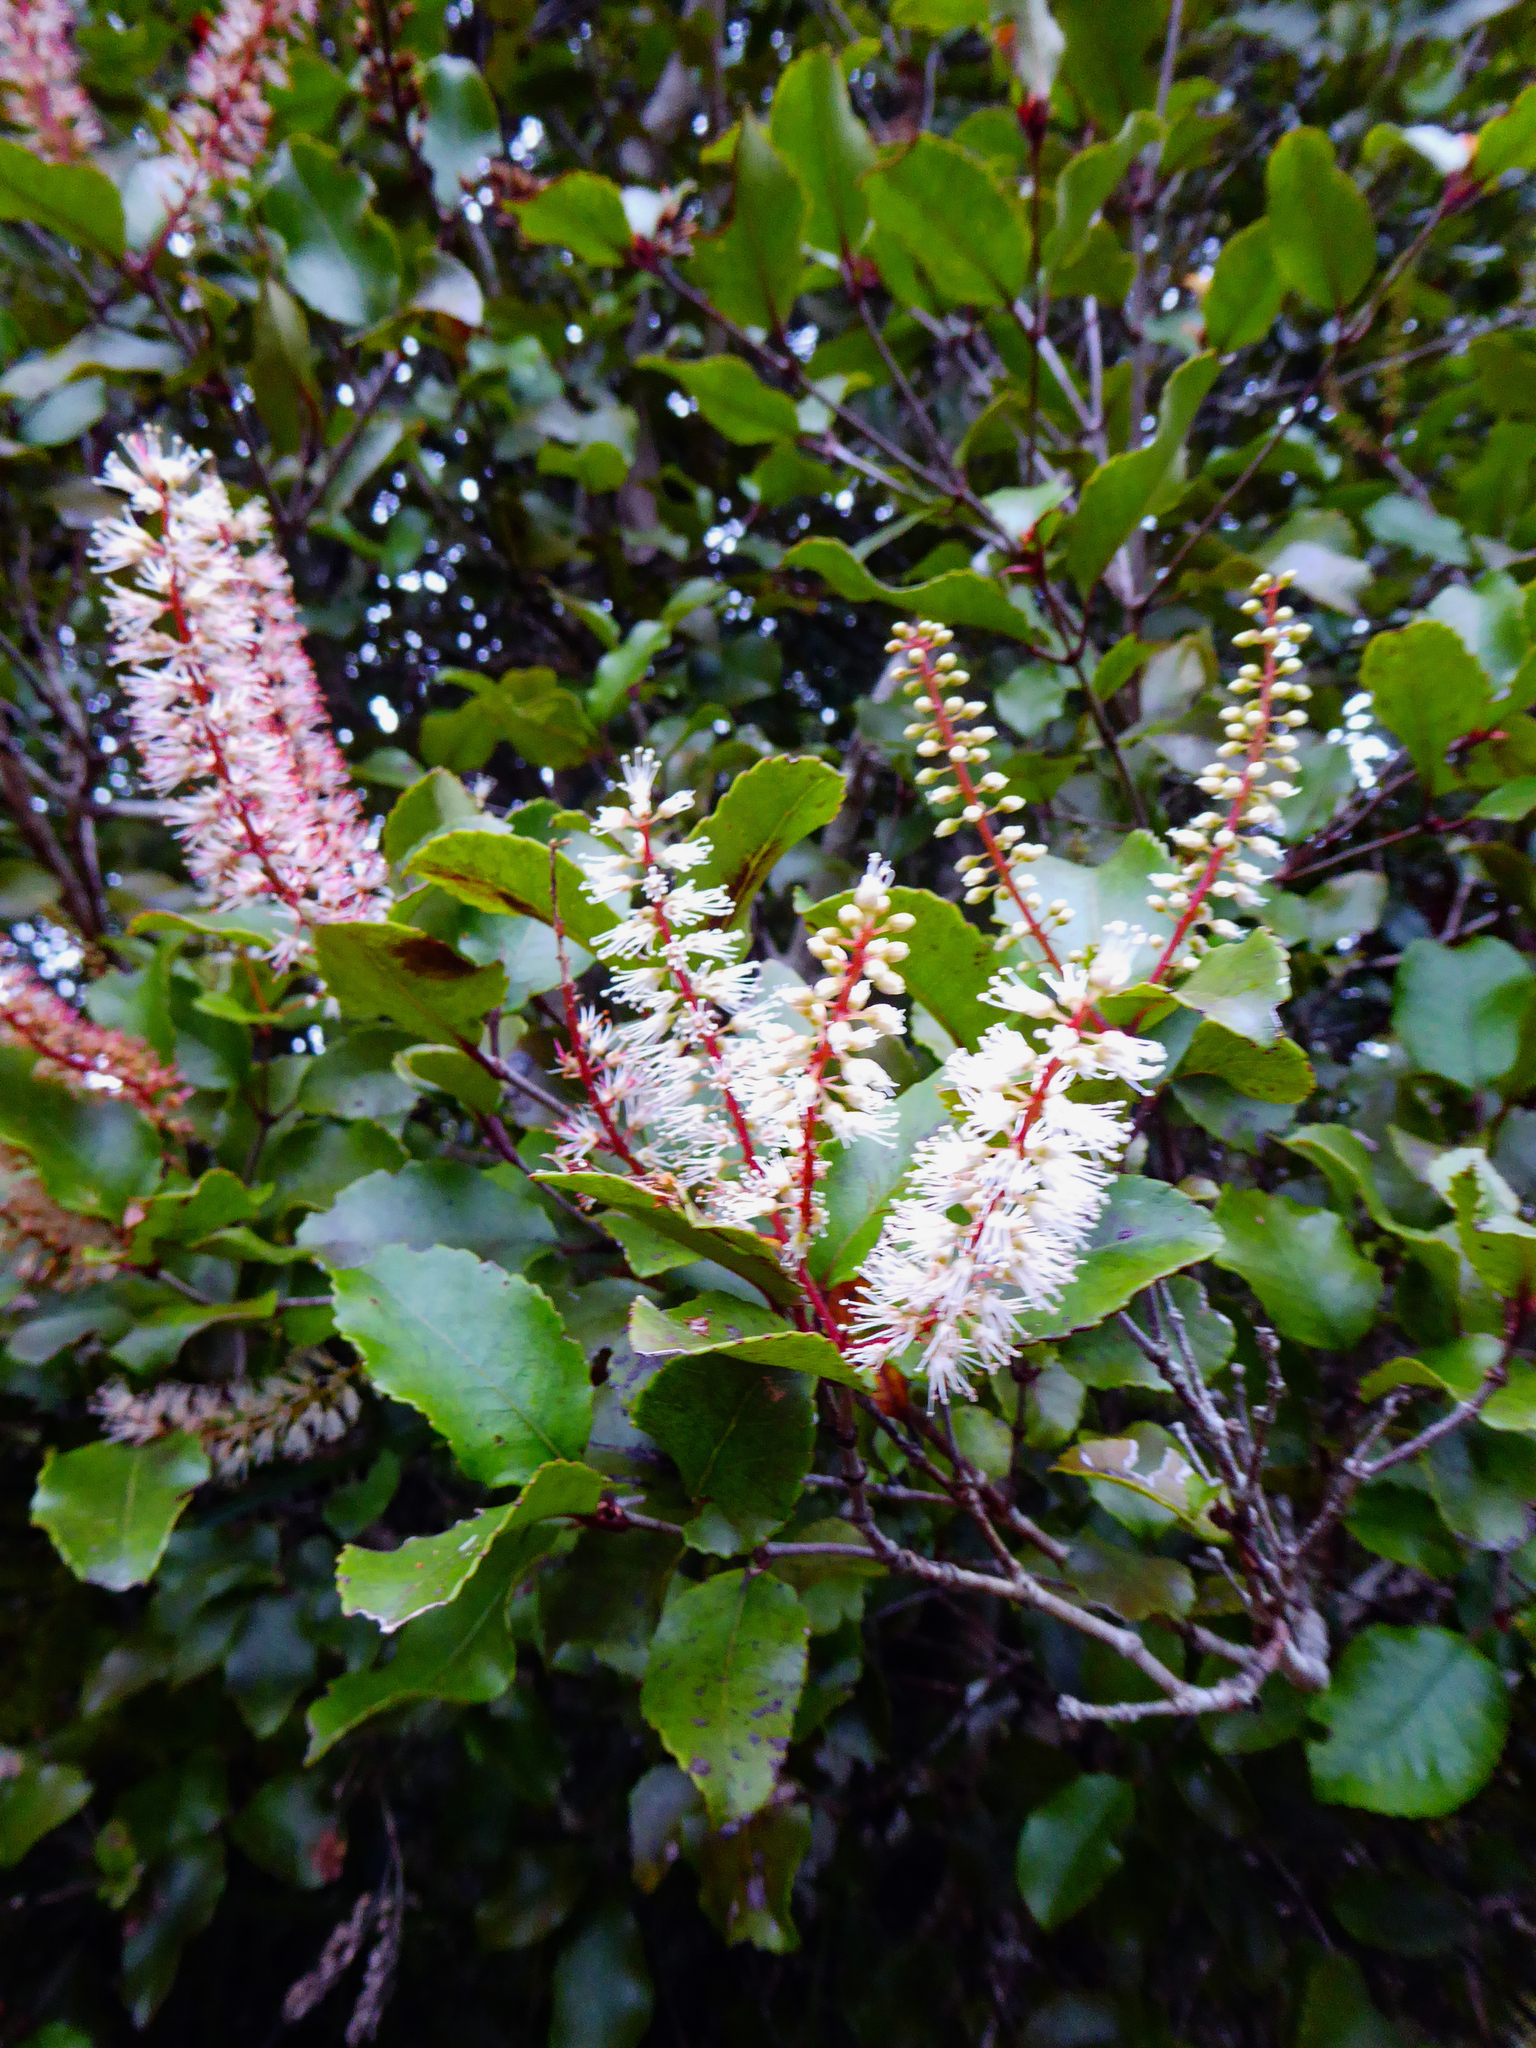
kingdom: Plantae
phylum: Tracheophyta
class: Magnoliopsida
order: Oxalidales
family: Cunoniaceae
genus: Pterophylla
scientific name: Pterophylla racemosa
